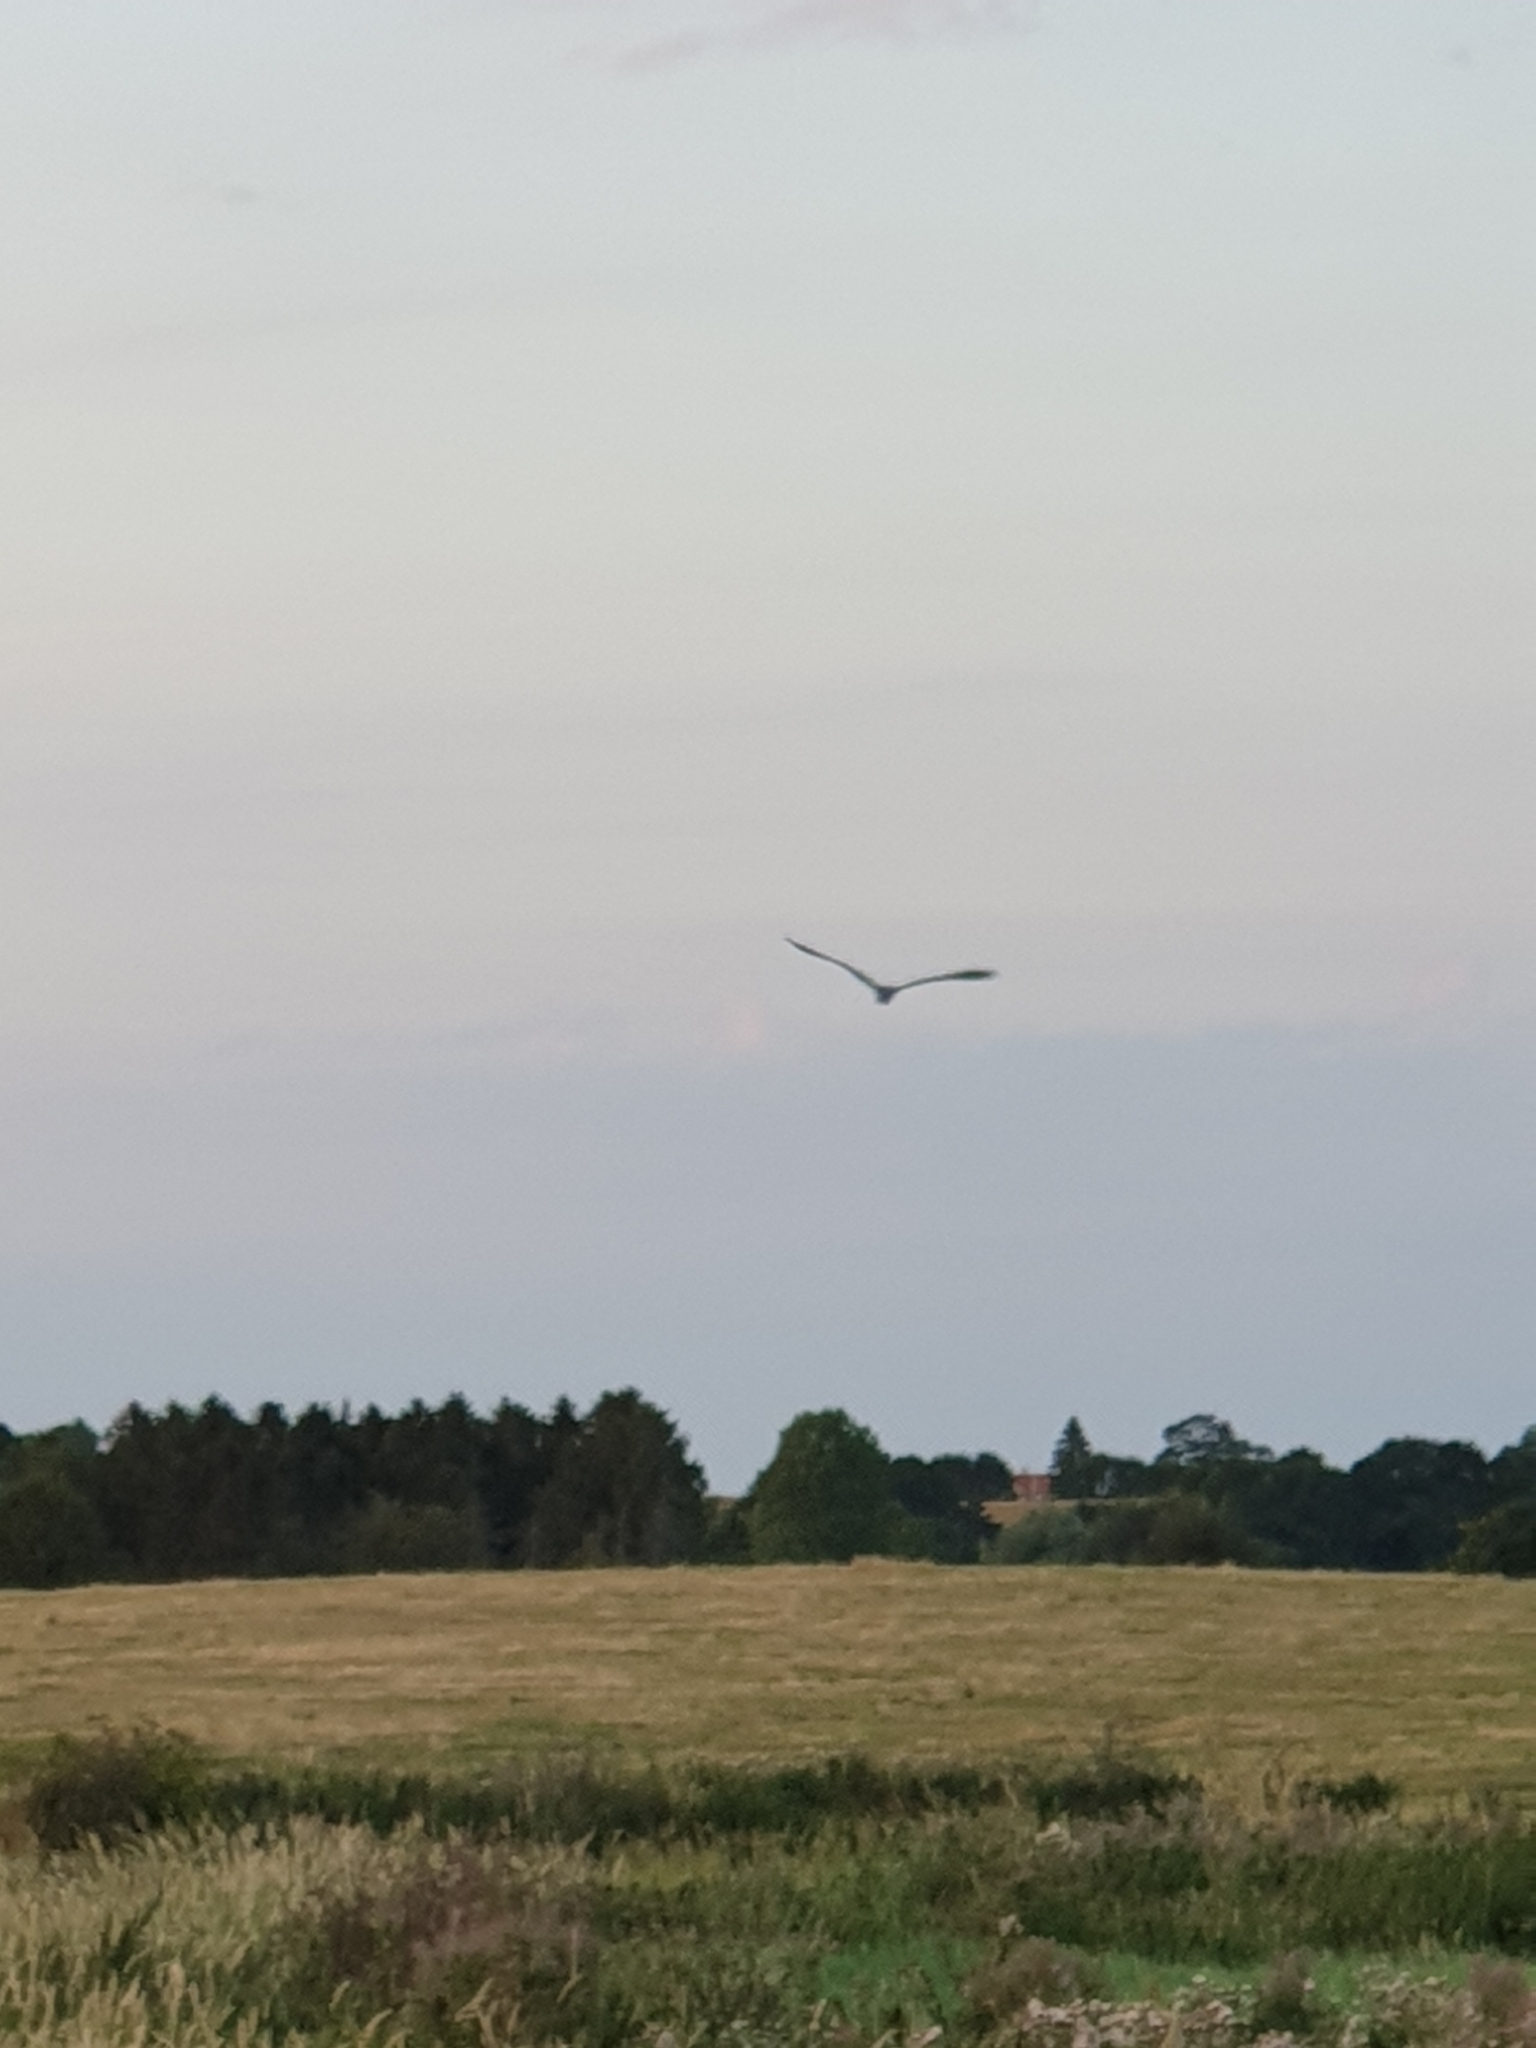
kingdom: Animalia
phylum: Chordata
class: Aves
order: Pelecaniformes
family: Ardeidae
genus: Ardea
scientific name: Ardea cinerea
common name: Grey heron
